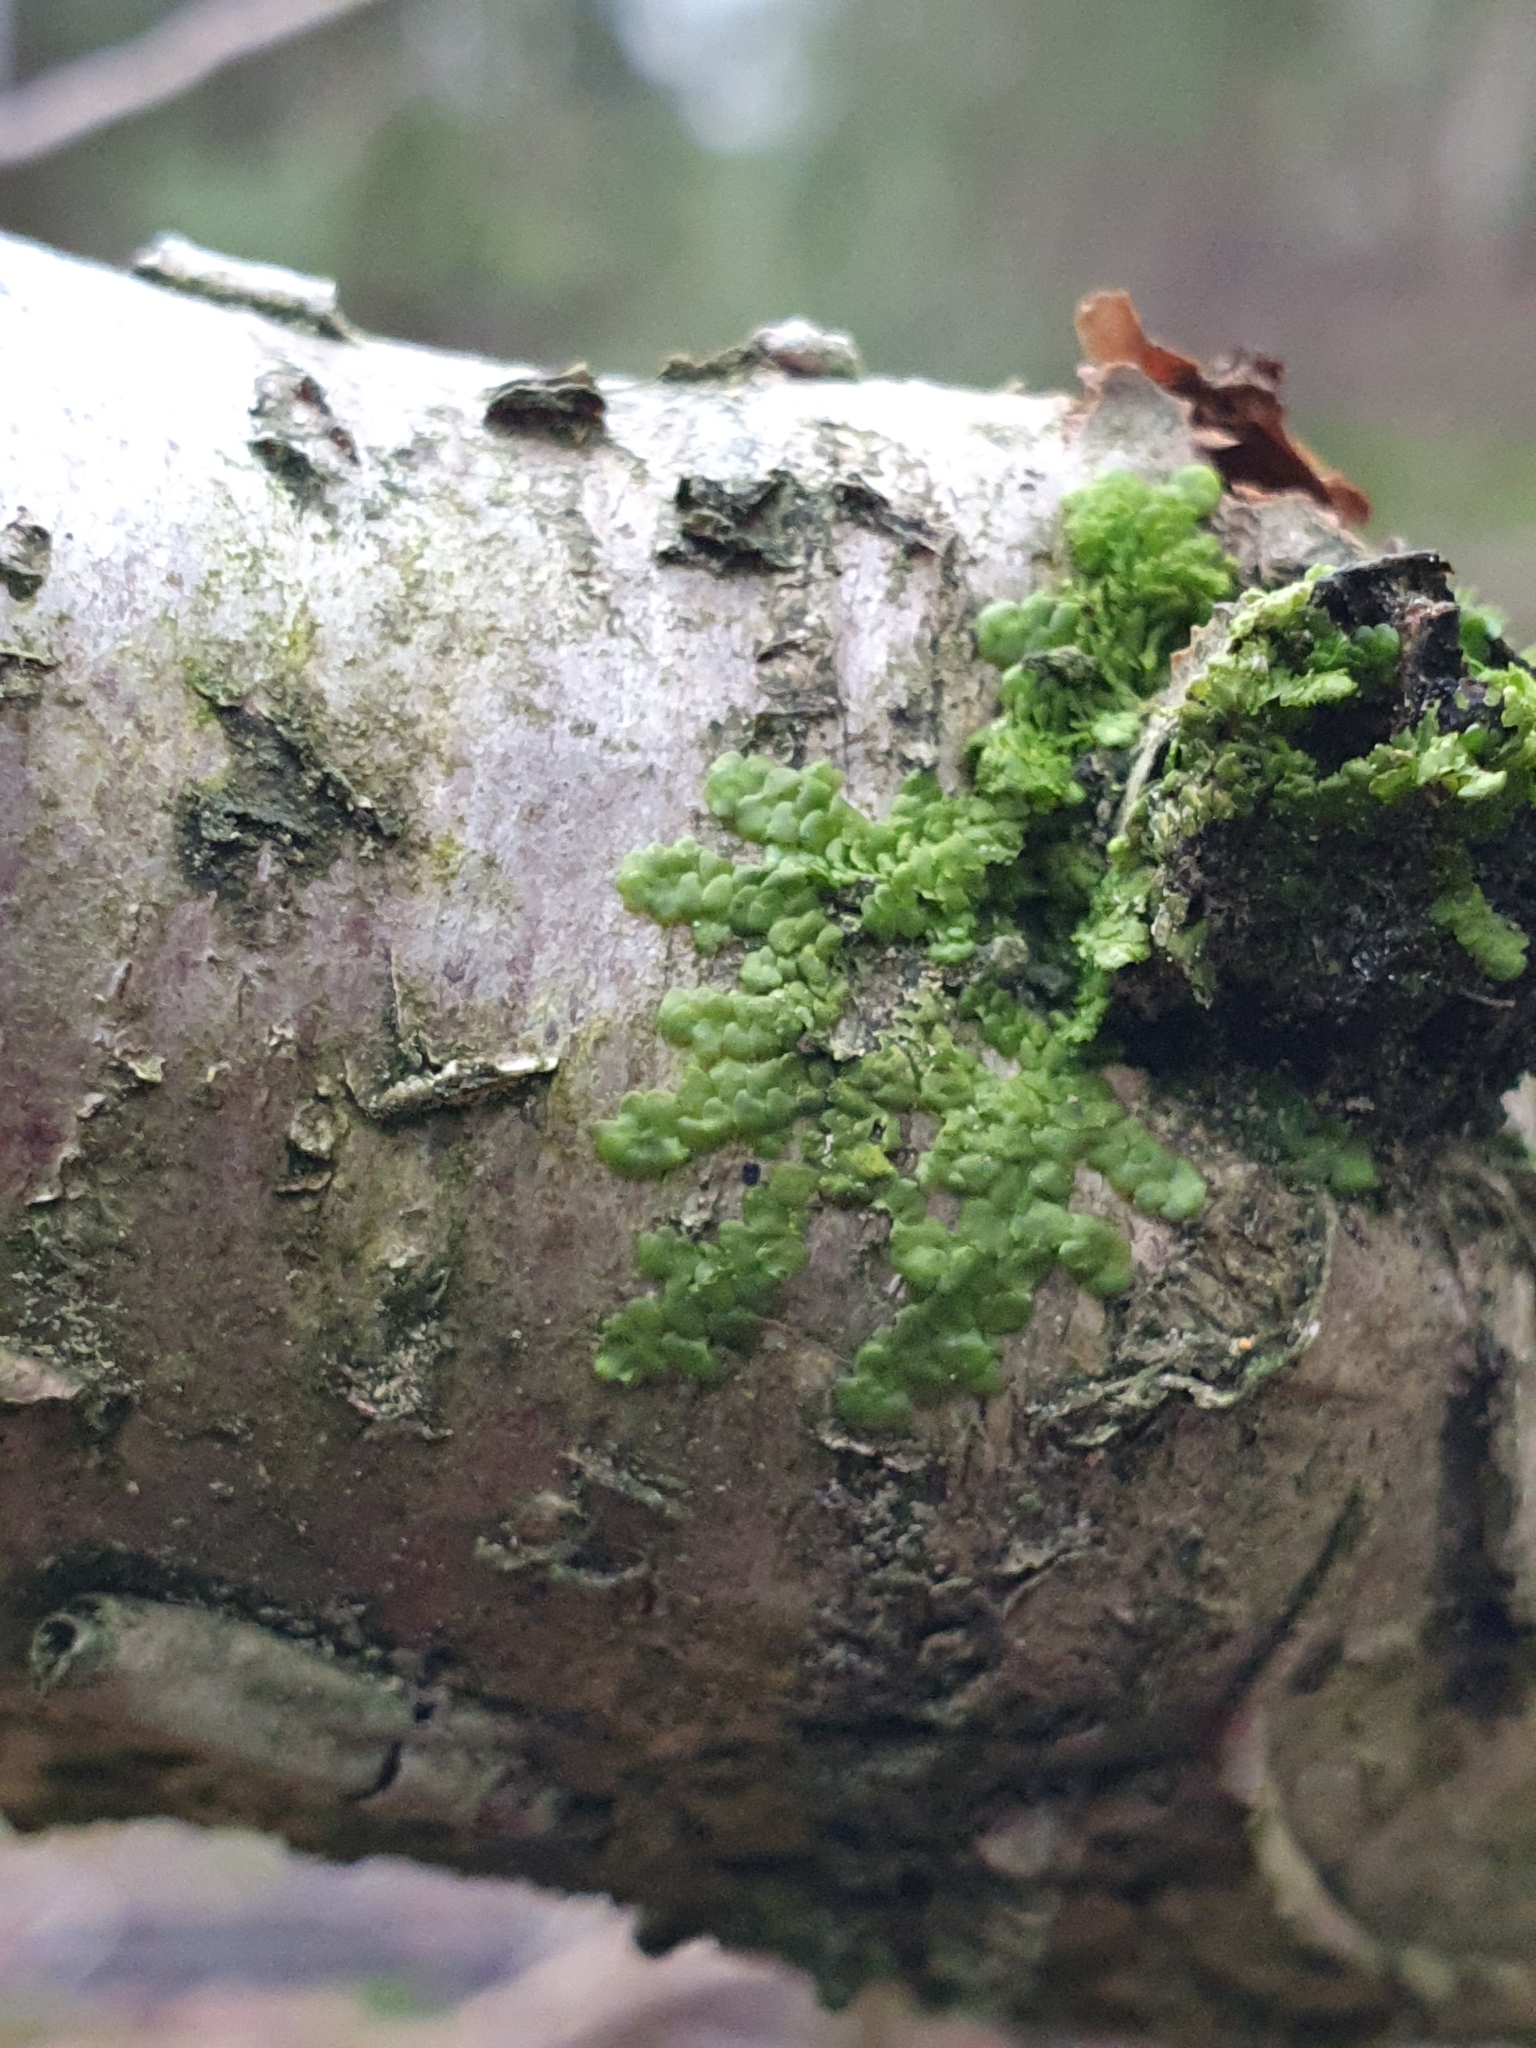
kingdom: Plantae
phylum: Marchantiophyta
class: Jungermanniopsida
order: Porellales
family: Radulaceae
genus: Radula
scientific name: Radula complanata
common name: Flat-leaved scalewort
